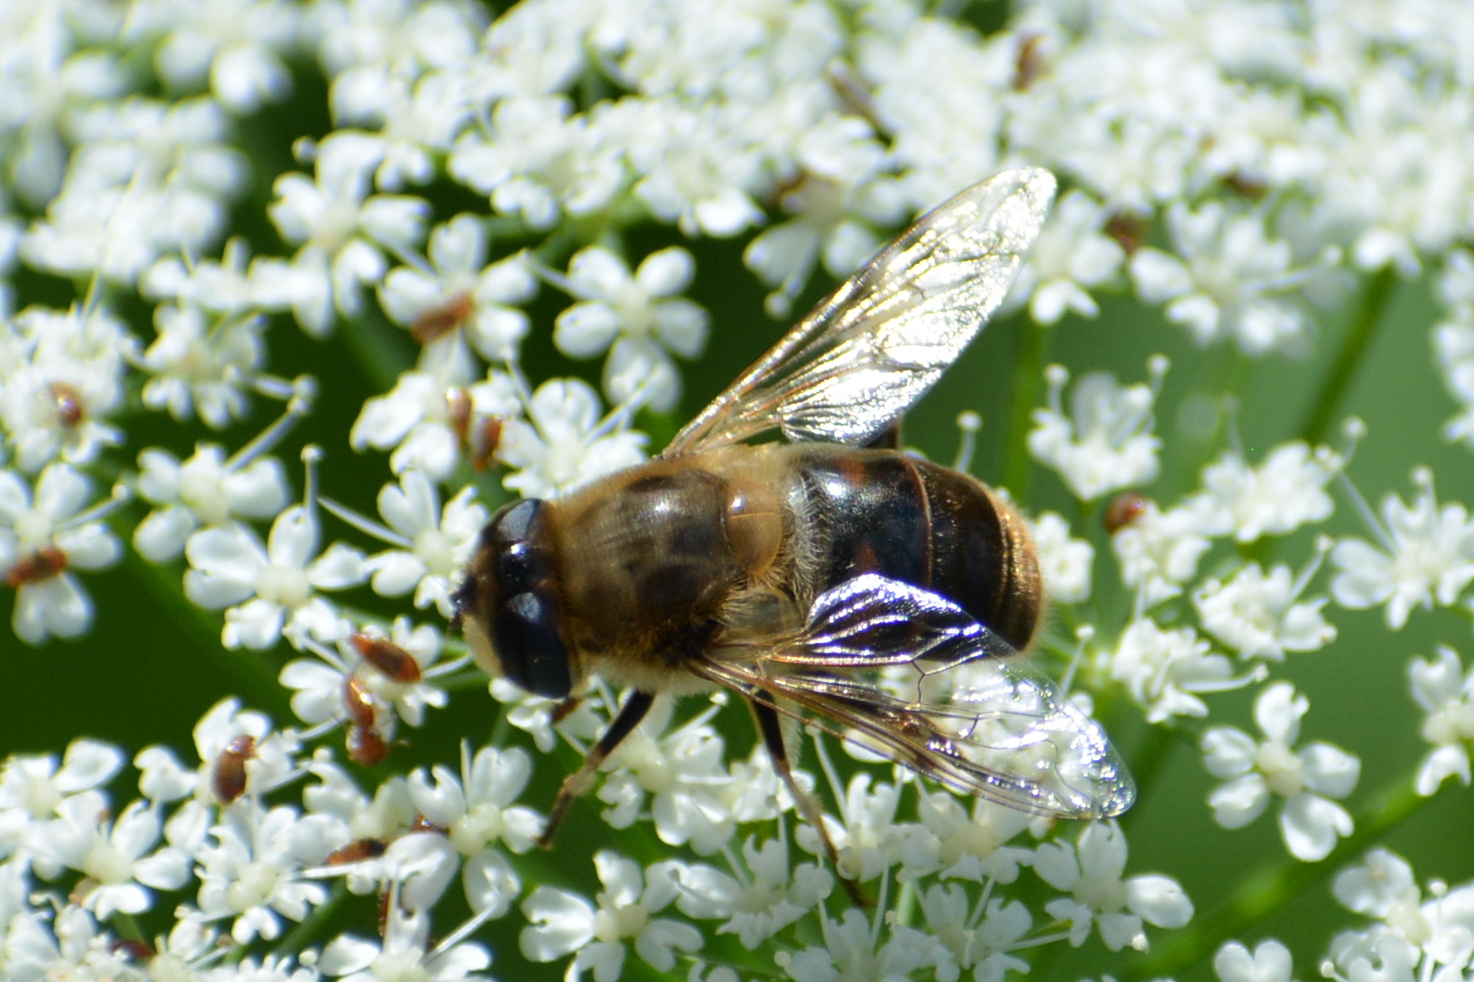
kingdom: Animalia
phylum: Arthropoda
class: Insecta
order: Diptera
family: Syrphidae
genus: Eristalis
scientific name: Eristalis tenax
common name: Drone fly
